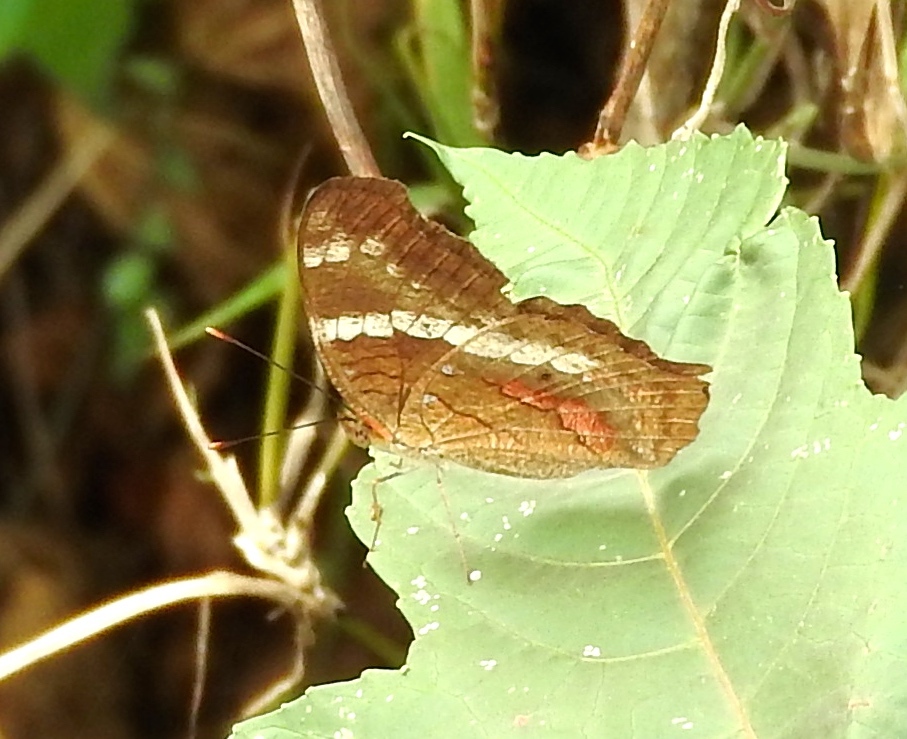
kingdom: Animalia
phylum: Arthropoda
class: Insecta
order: Lepidoptera
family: Nymphalidae
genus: Anartia
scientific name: Anartia fatima
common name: Banded peacock
